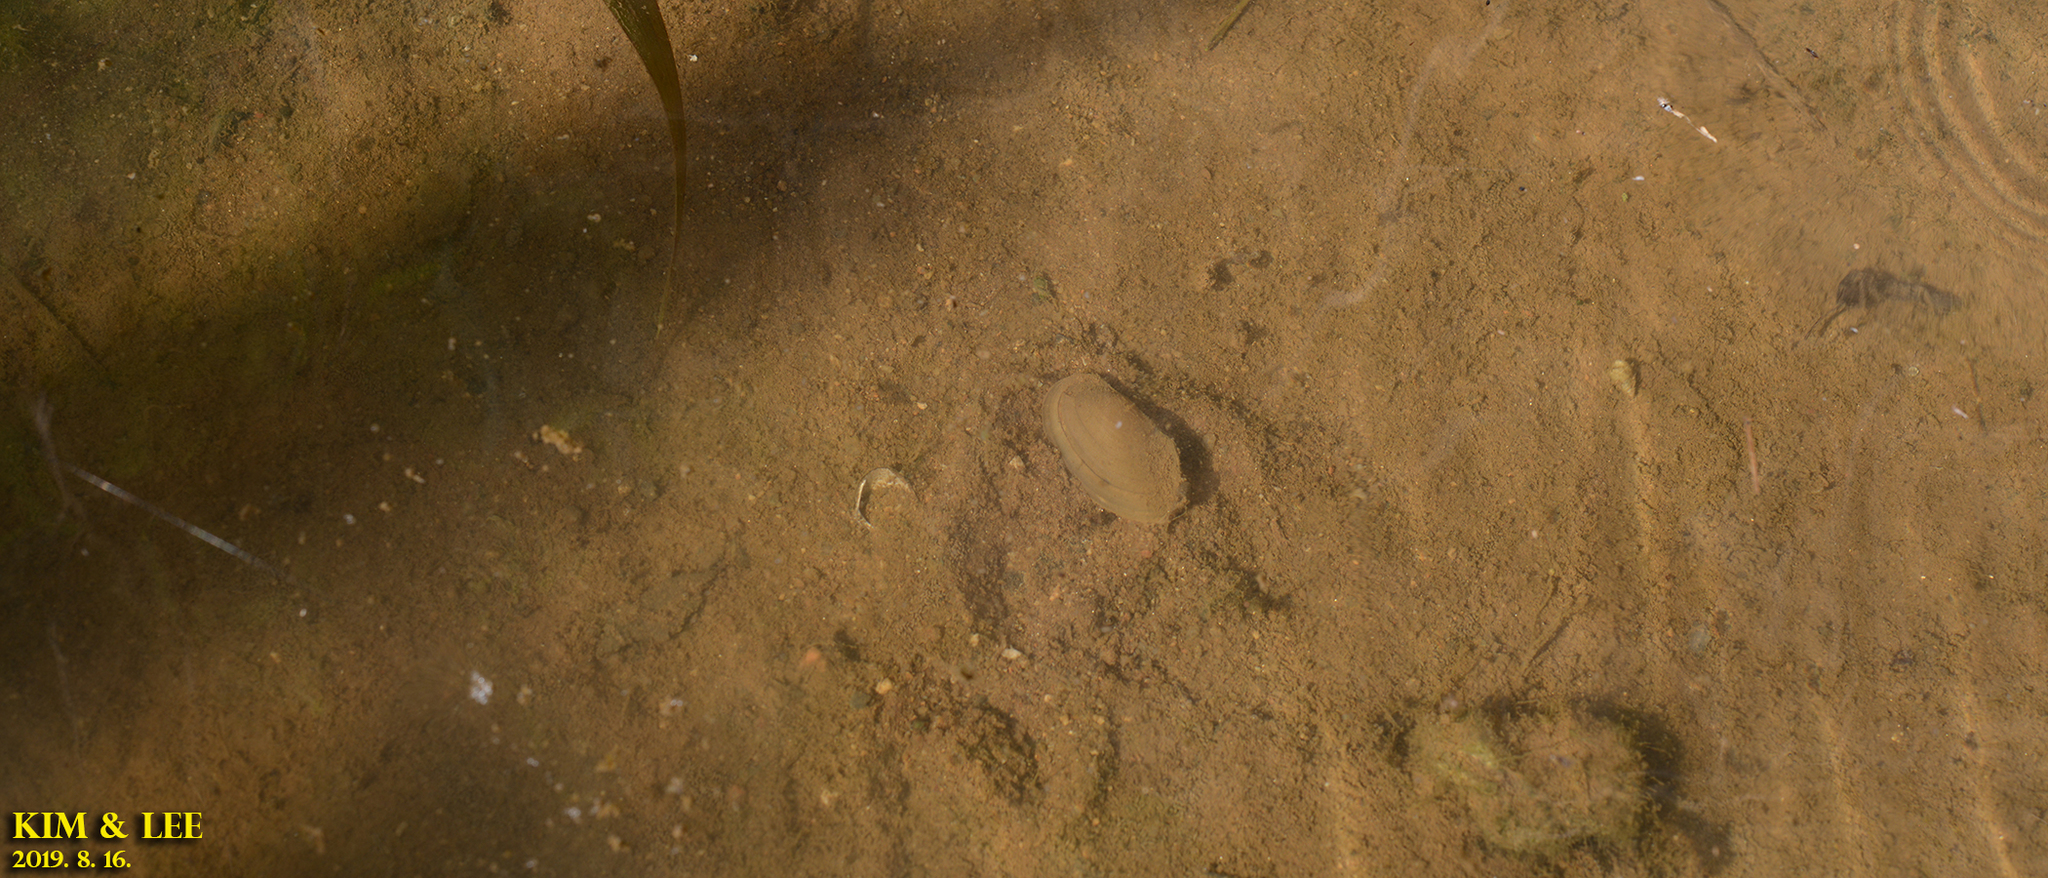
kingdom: Animalia
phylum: Mollusca
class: Bivalvia
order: Unionida
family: Unionidae
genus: Sinanodonta
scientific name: Sinanodonta lauta
